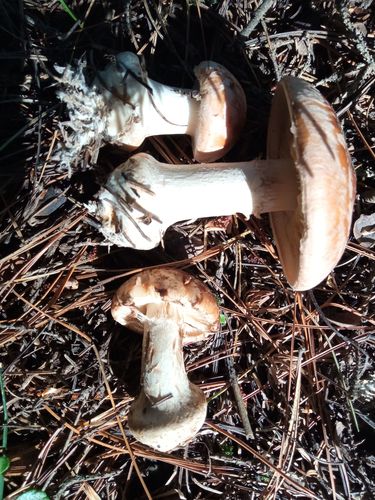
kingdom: Fungi
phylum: Basidiomycota
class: Agaricomycetes
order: Agaricales
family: Cortinariaceae
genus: Cortinarius
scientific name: Cortinarius
